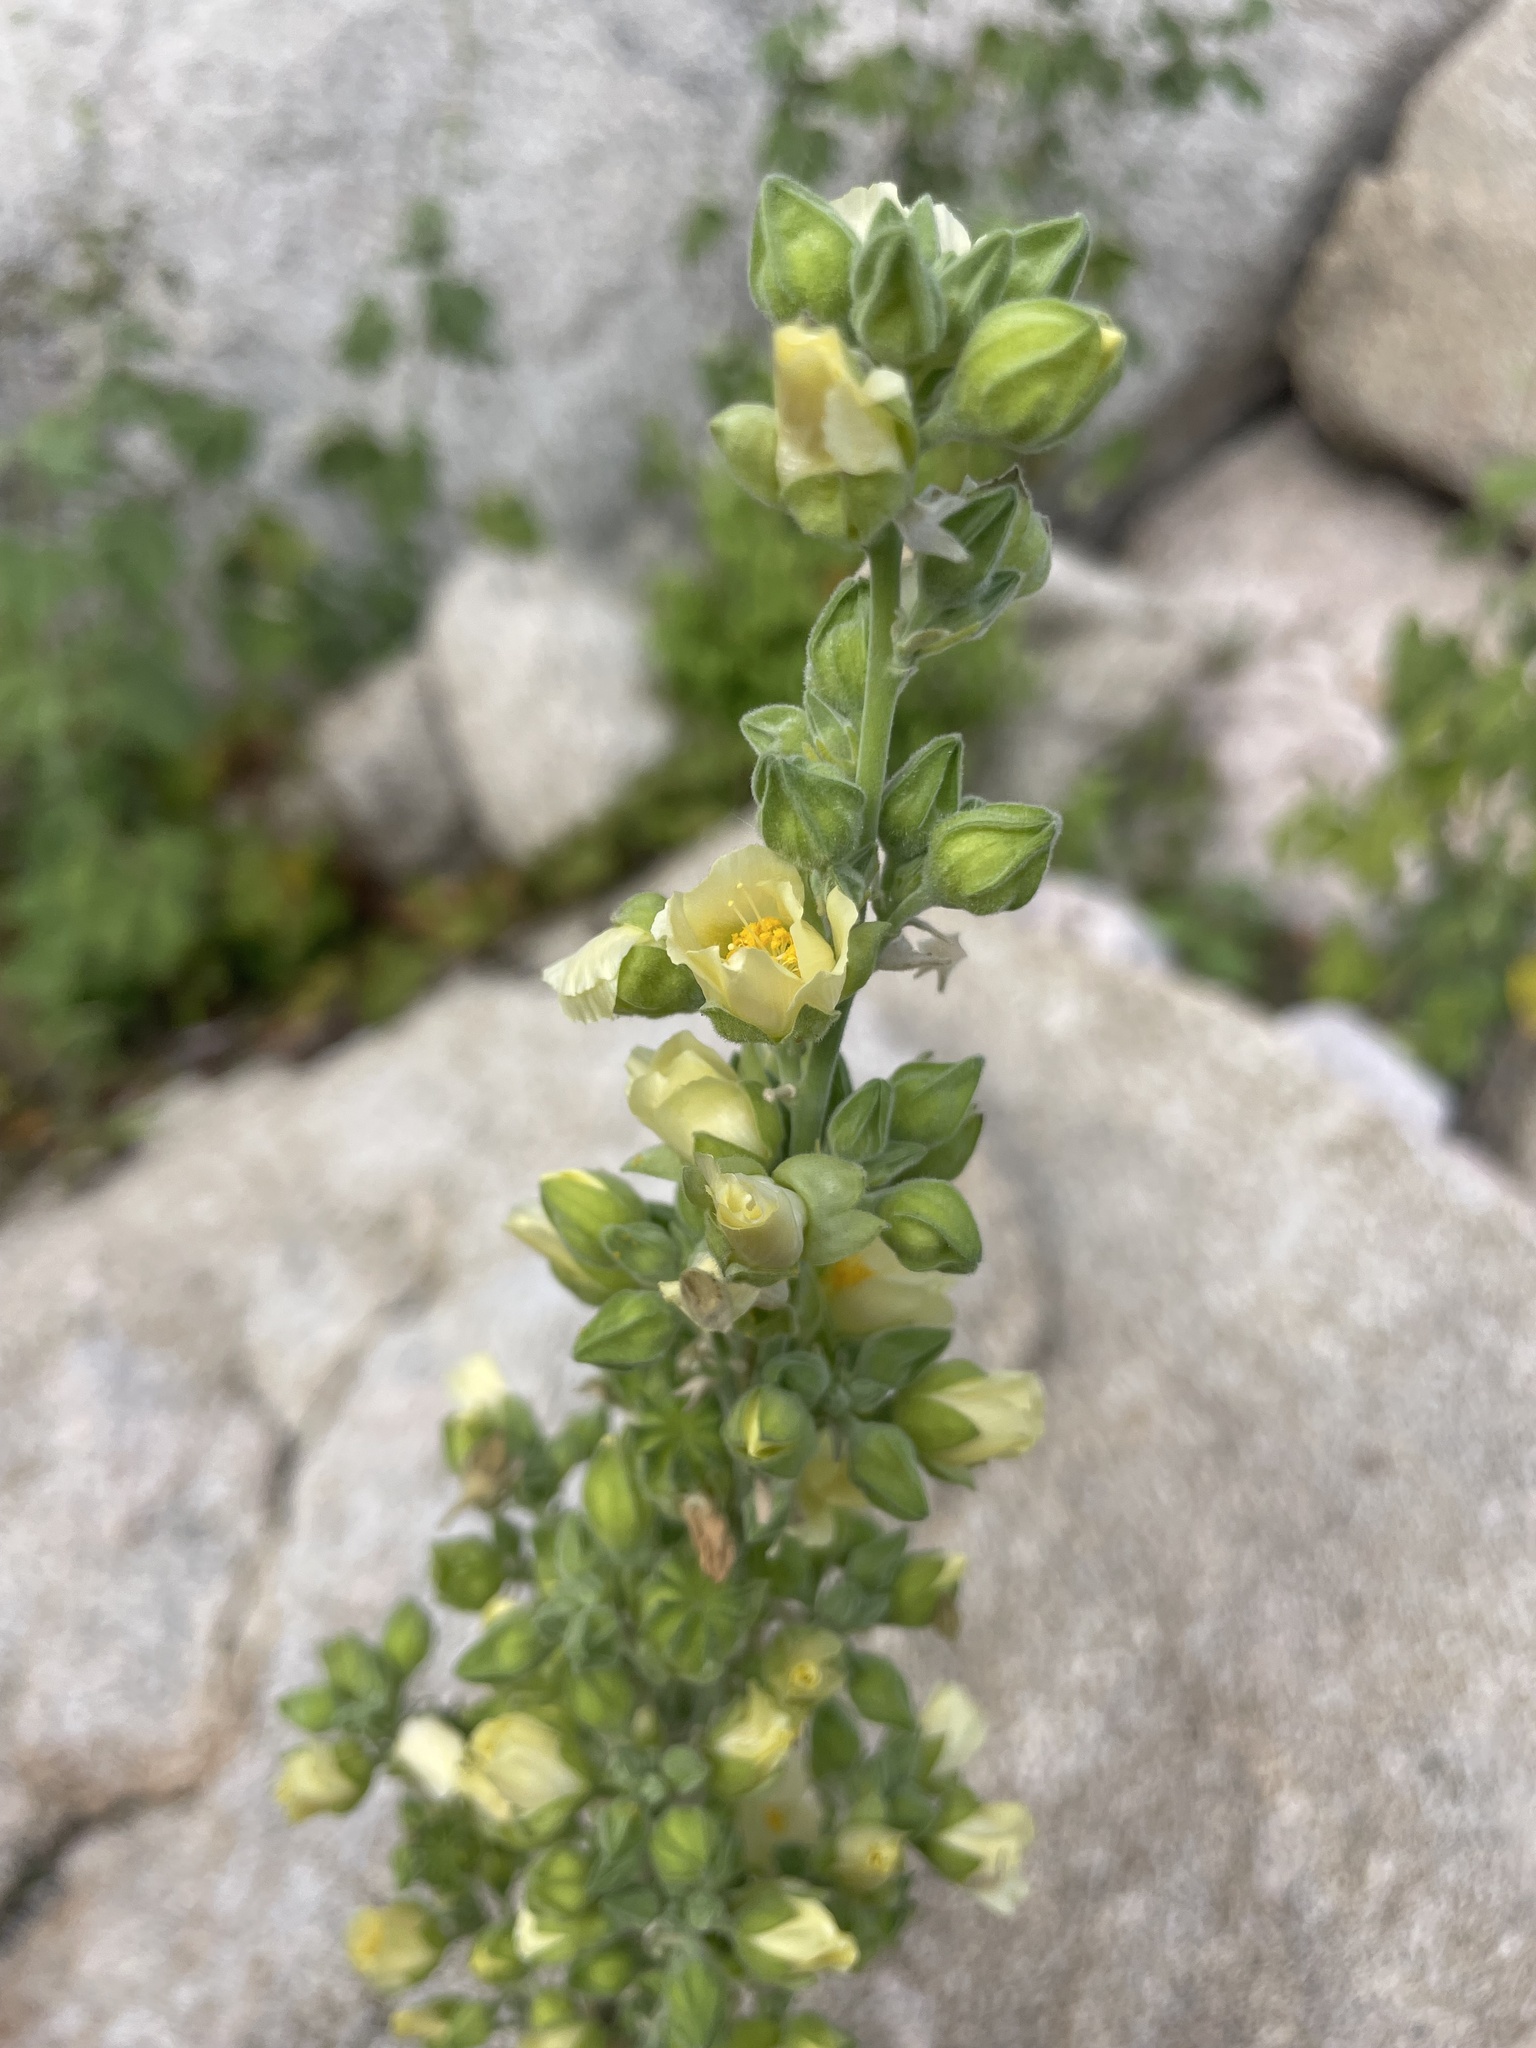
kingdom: Plantae
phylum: Tracheophyta
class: Magnoliopsida
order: Malvales
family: Malvaceae
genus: Abutilon
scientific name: Abutilon xanti
